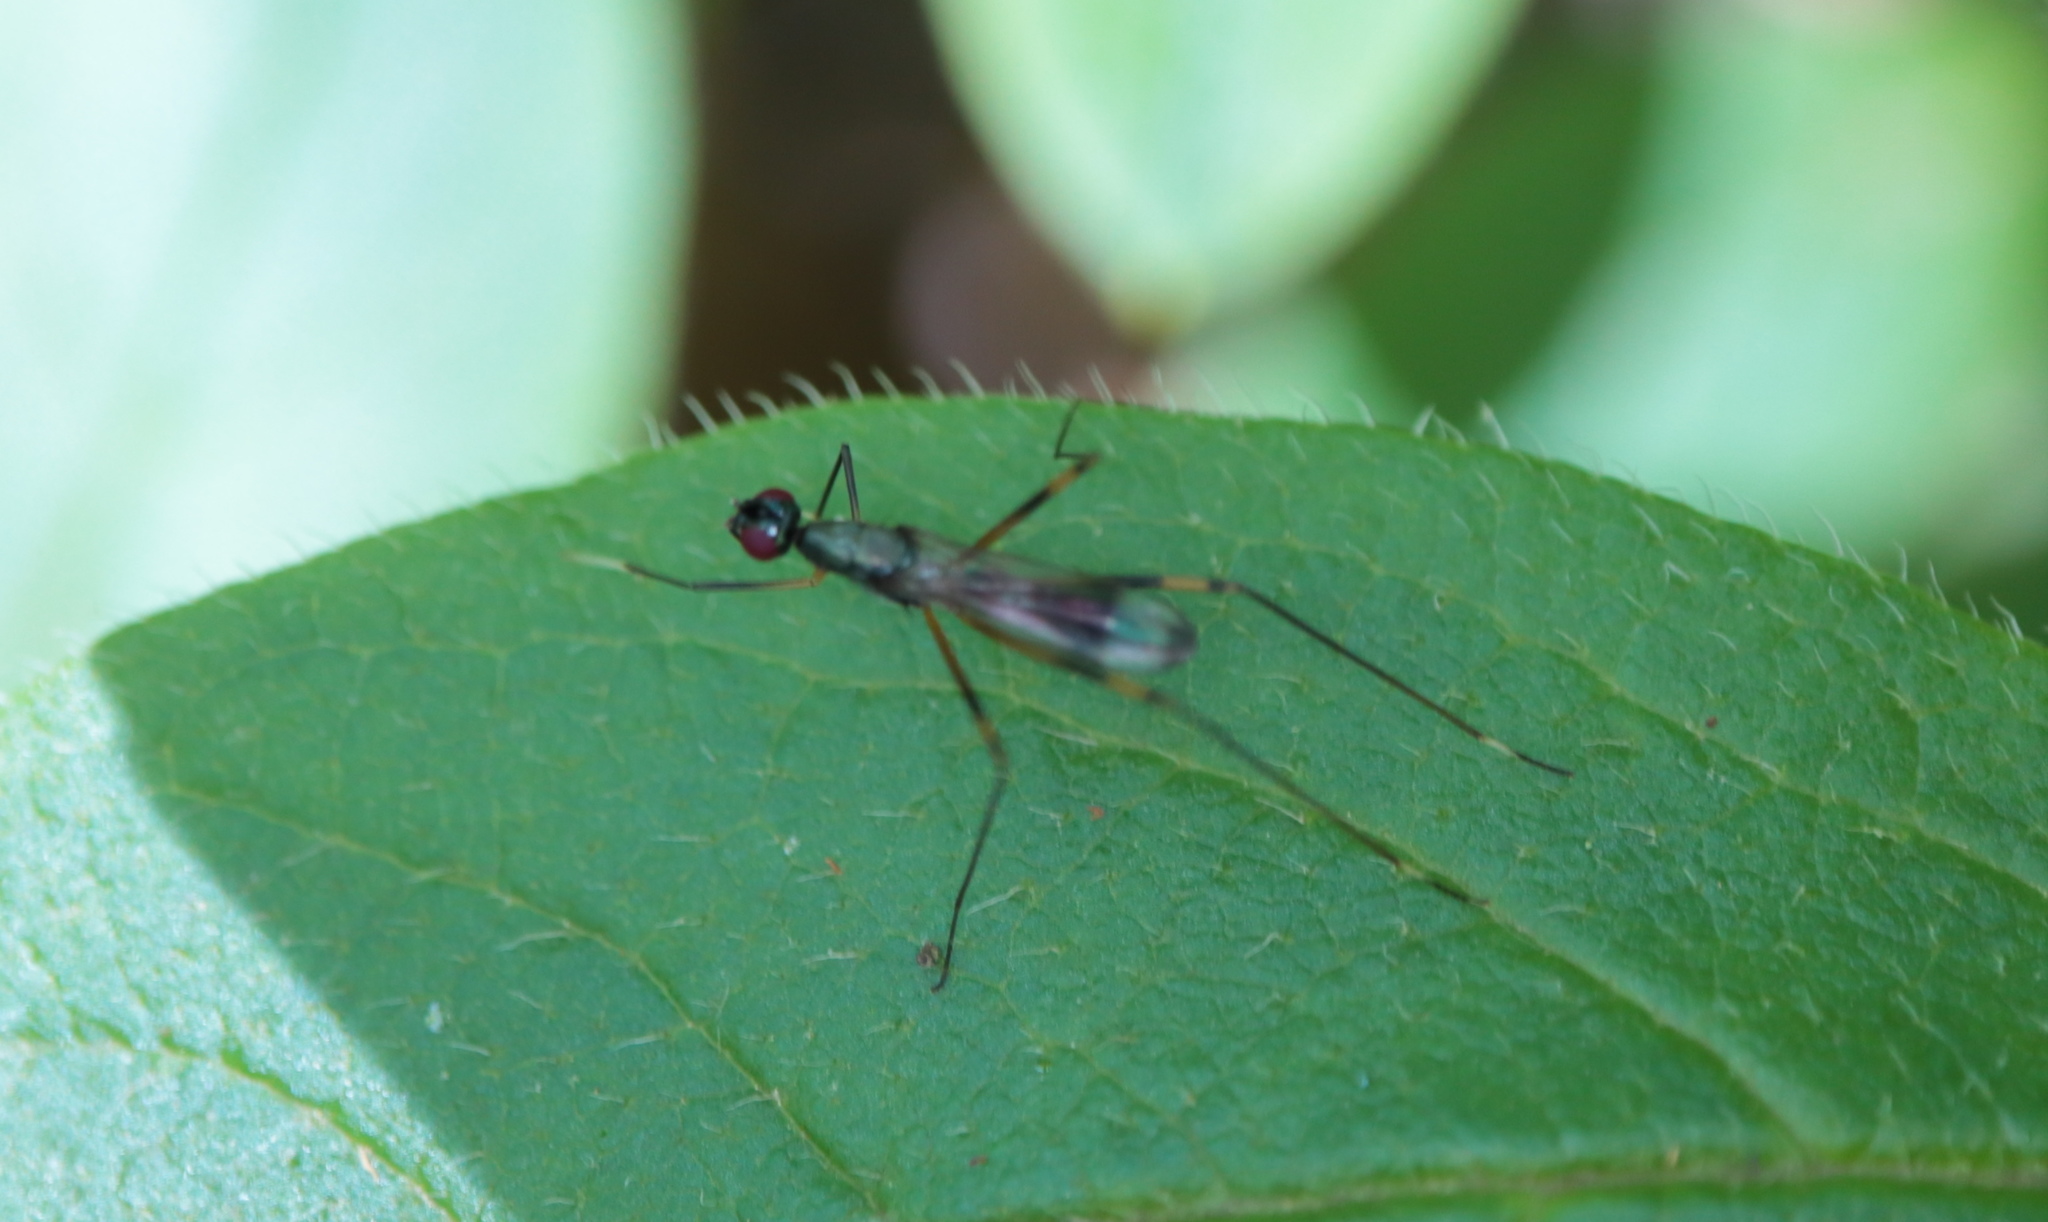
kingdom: Animalia
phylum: Arthropoda
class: Insecta
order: Diptera
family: Micropezidae
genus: Rainieria
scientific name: Rainieria antennaepes
